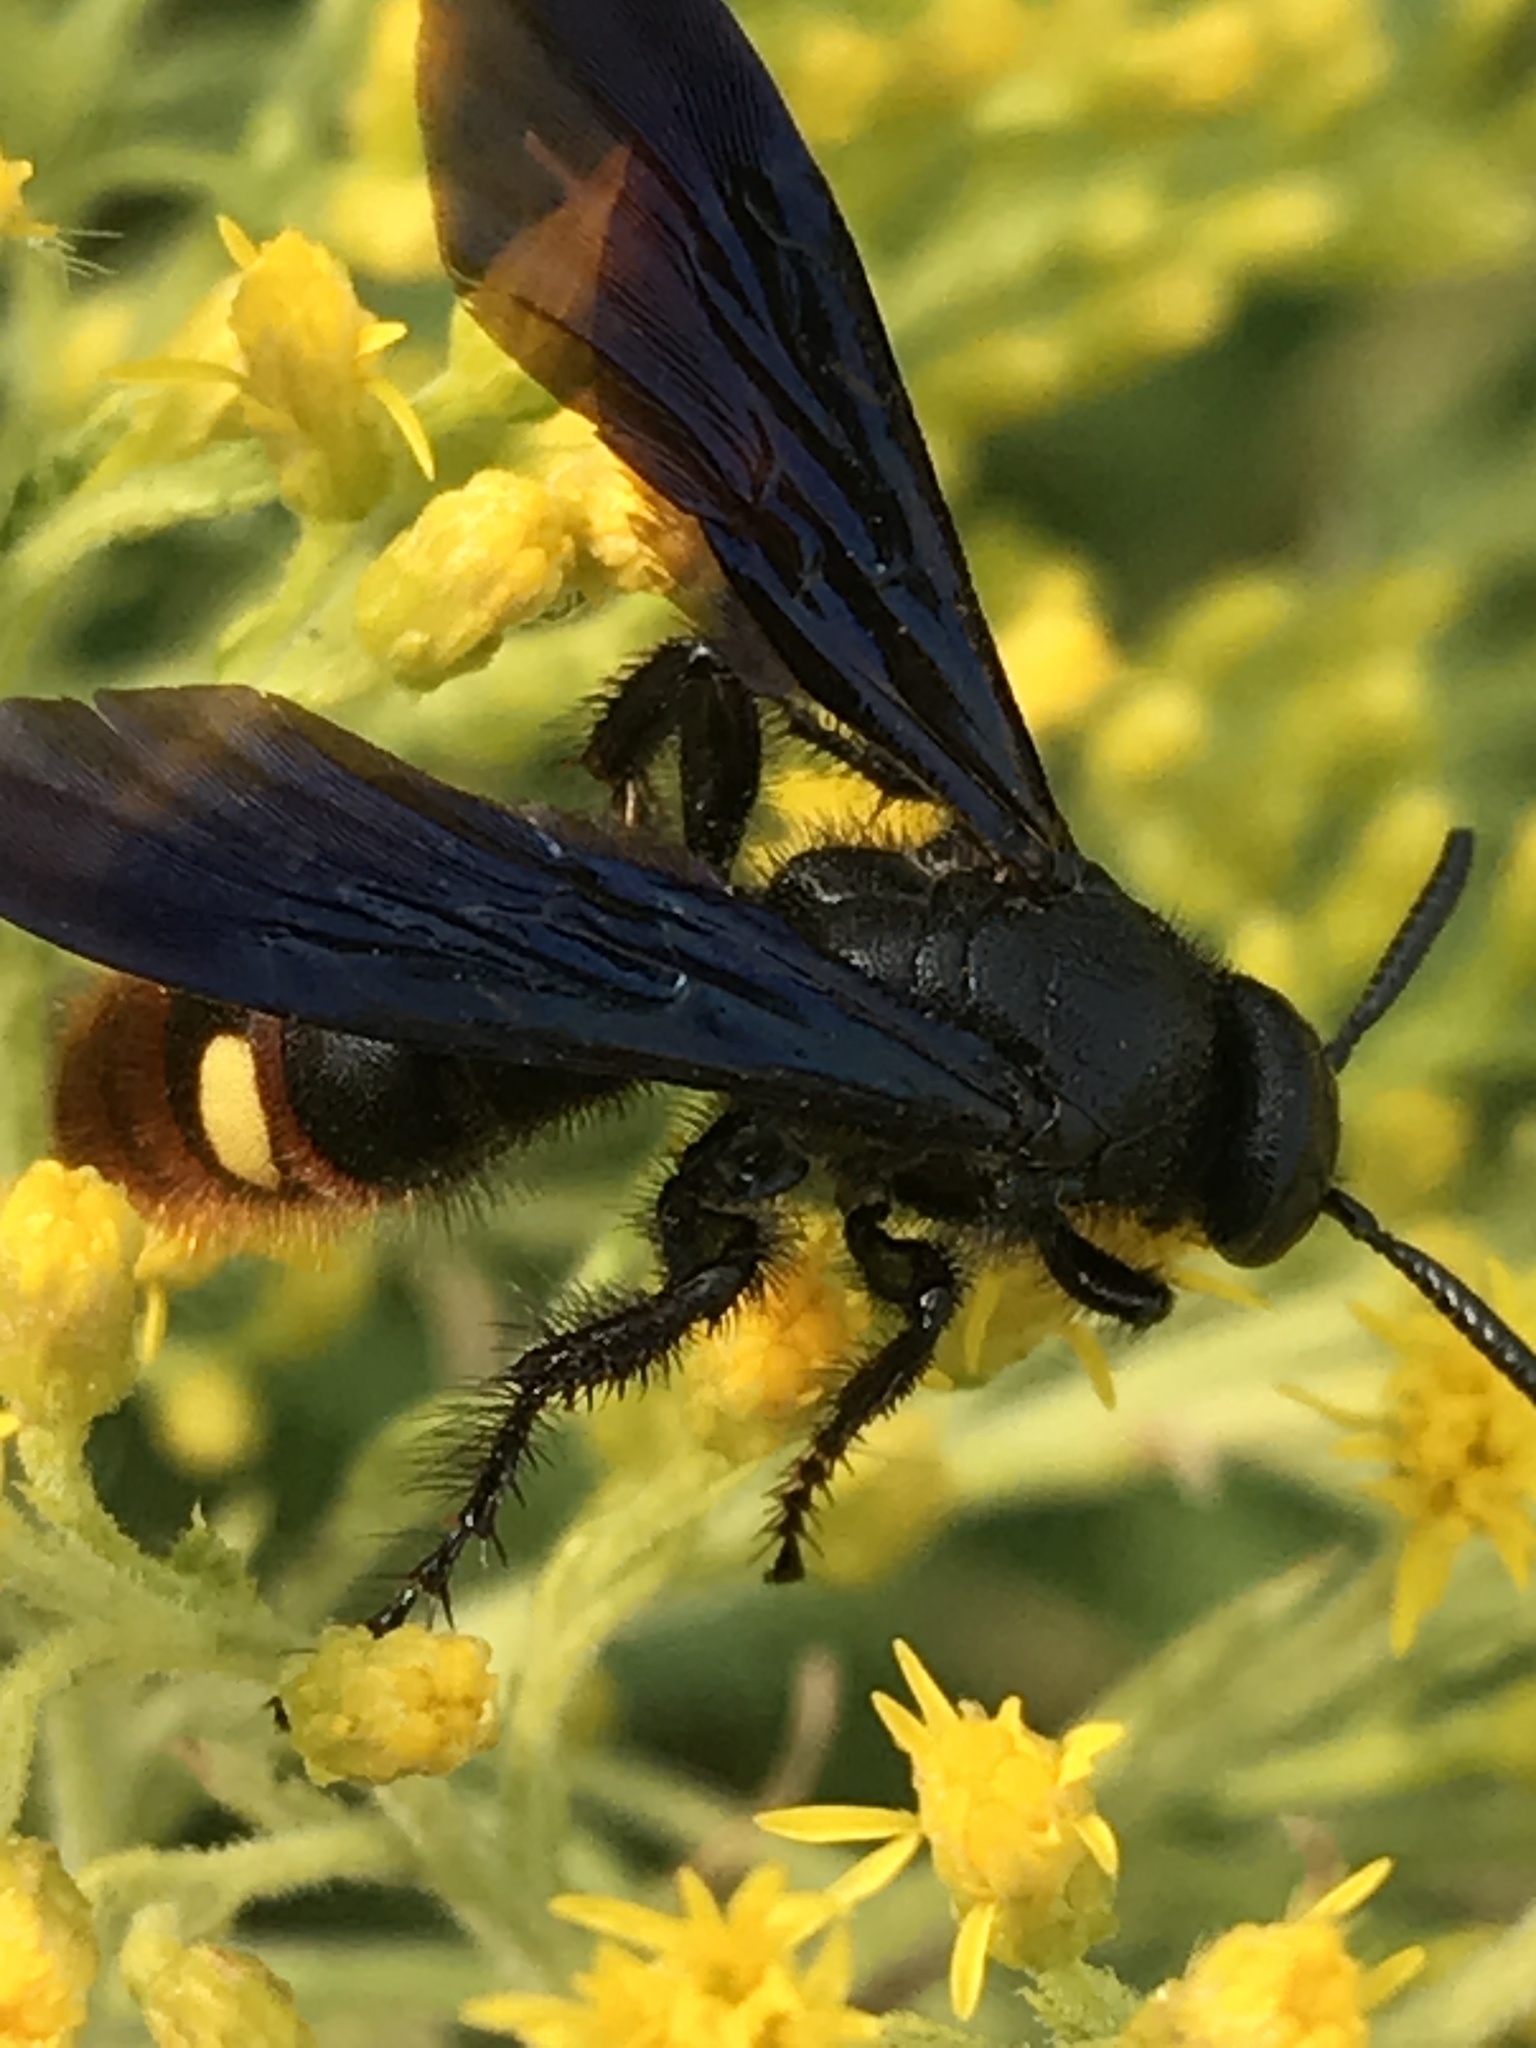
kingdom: Animalia
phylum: Arthropoda
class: Insecta
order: Hymenoptera
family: Scoliidae
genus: Scolia
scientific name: Scolia dubia
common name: Blue-winged scoliid wasp
